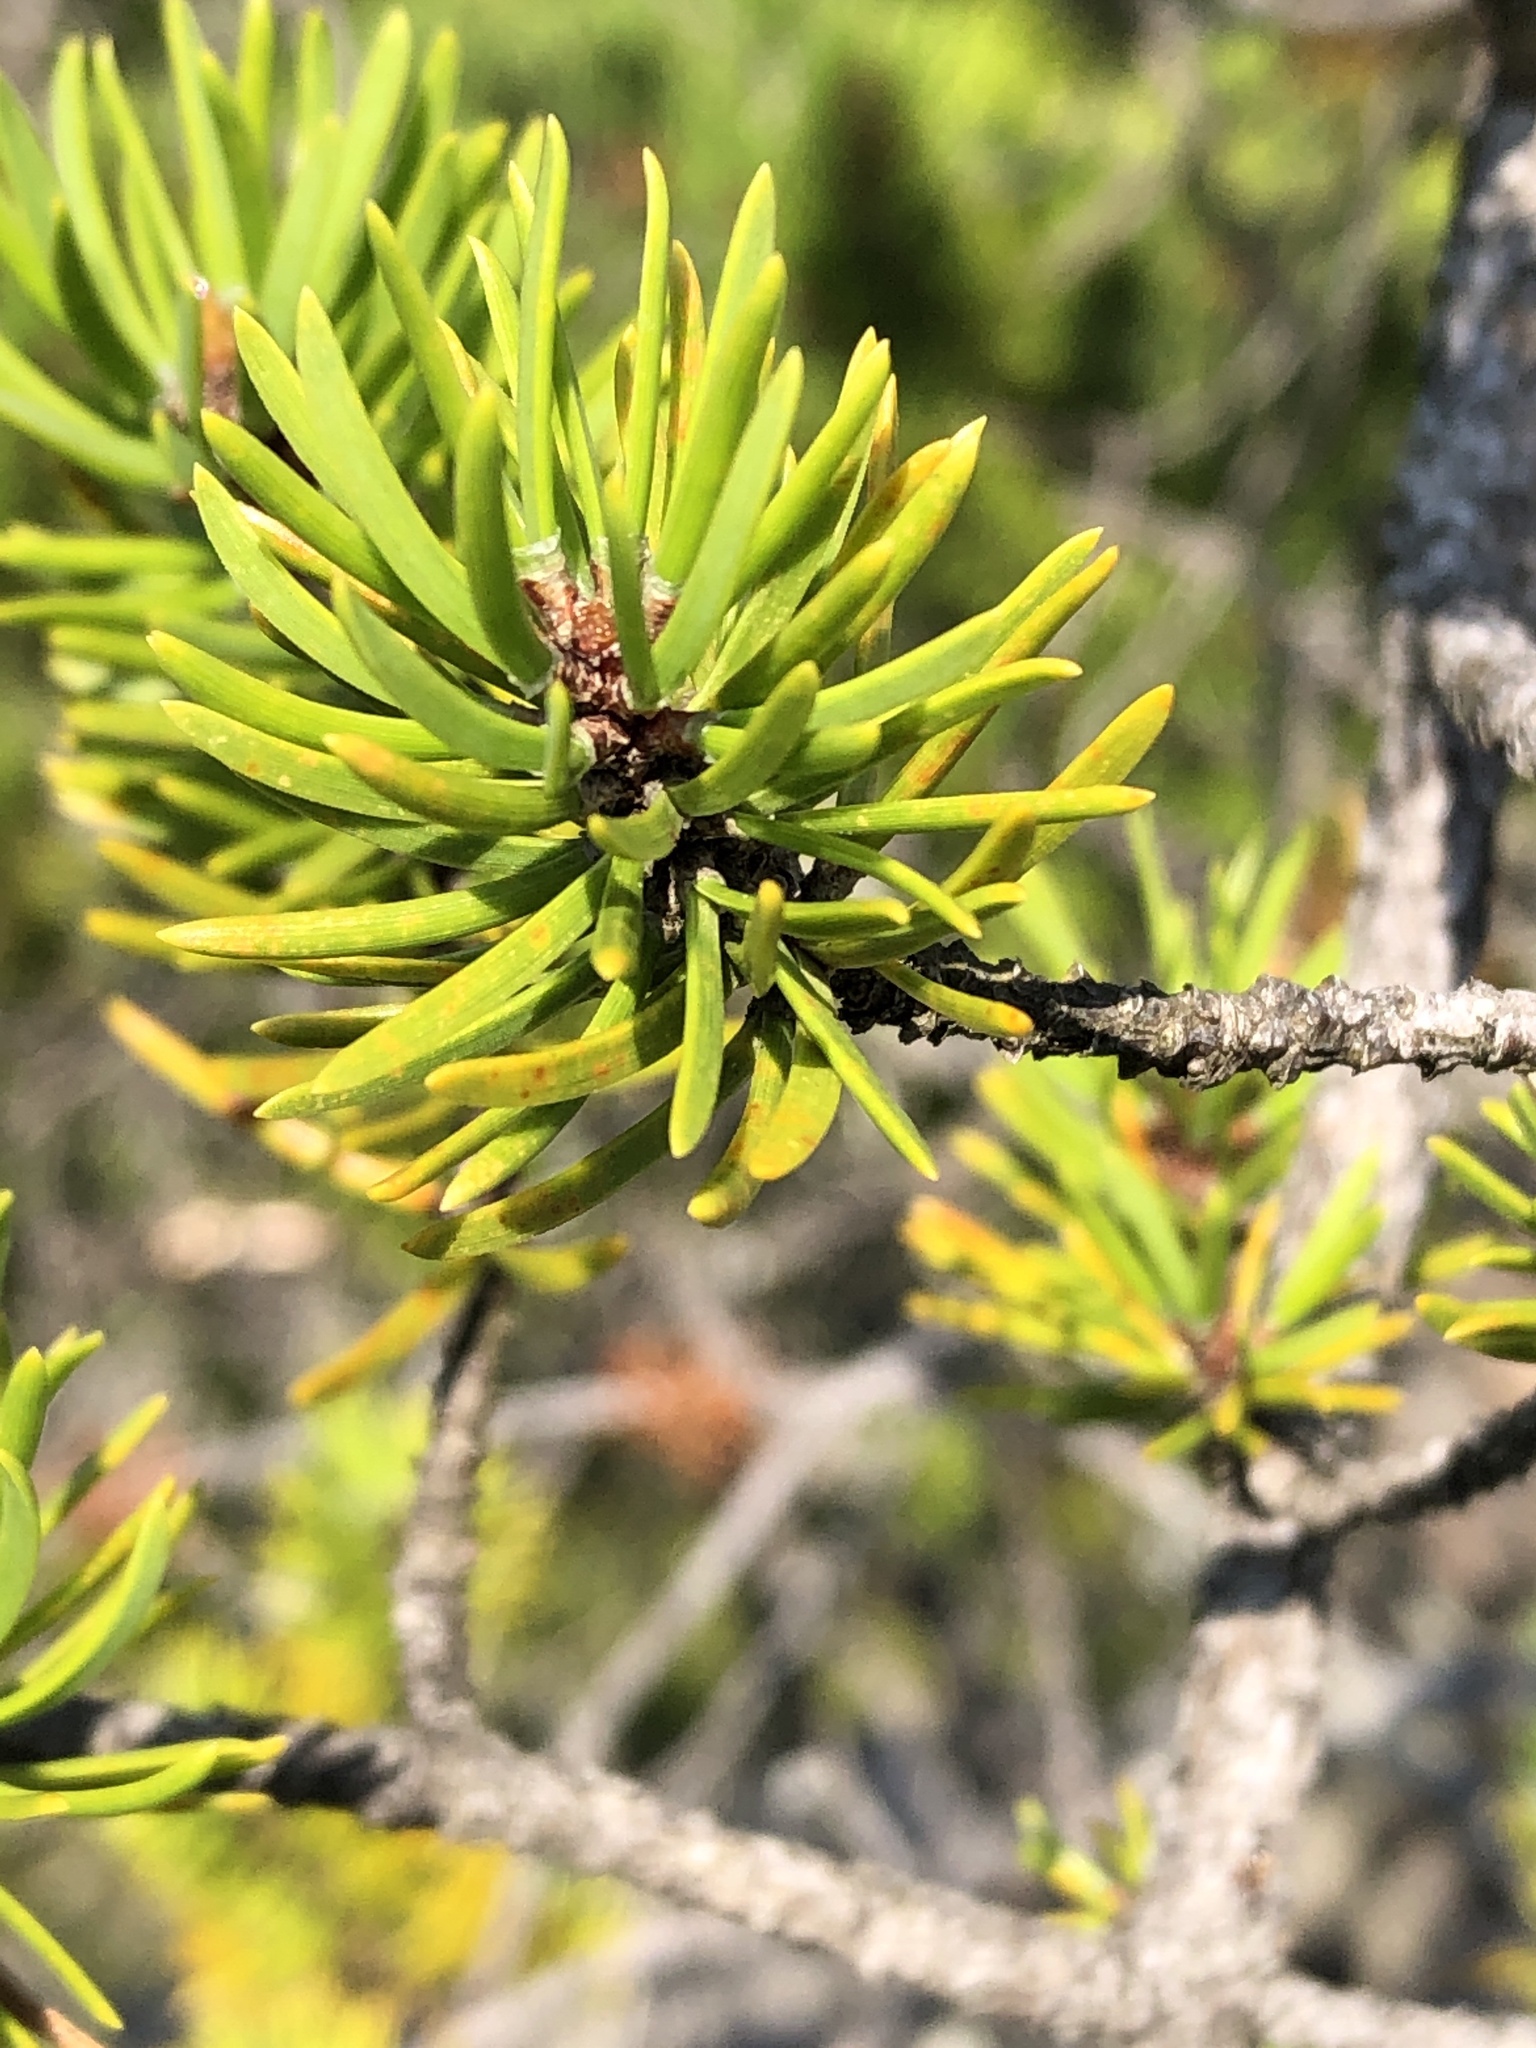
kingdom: Plantae
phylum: Tracheophyta
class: Pinopsida
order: Pinales
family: Pinaceae
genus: Pinus
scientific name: Pinus banksiana
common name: Jack pine
